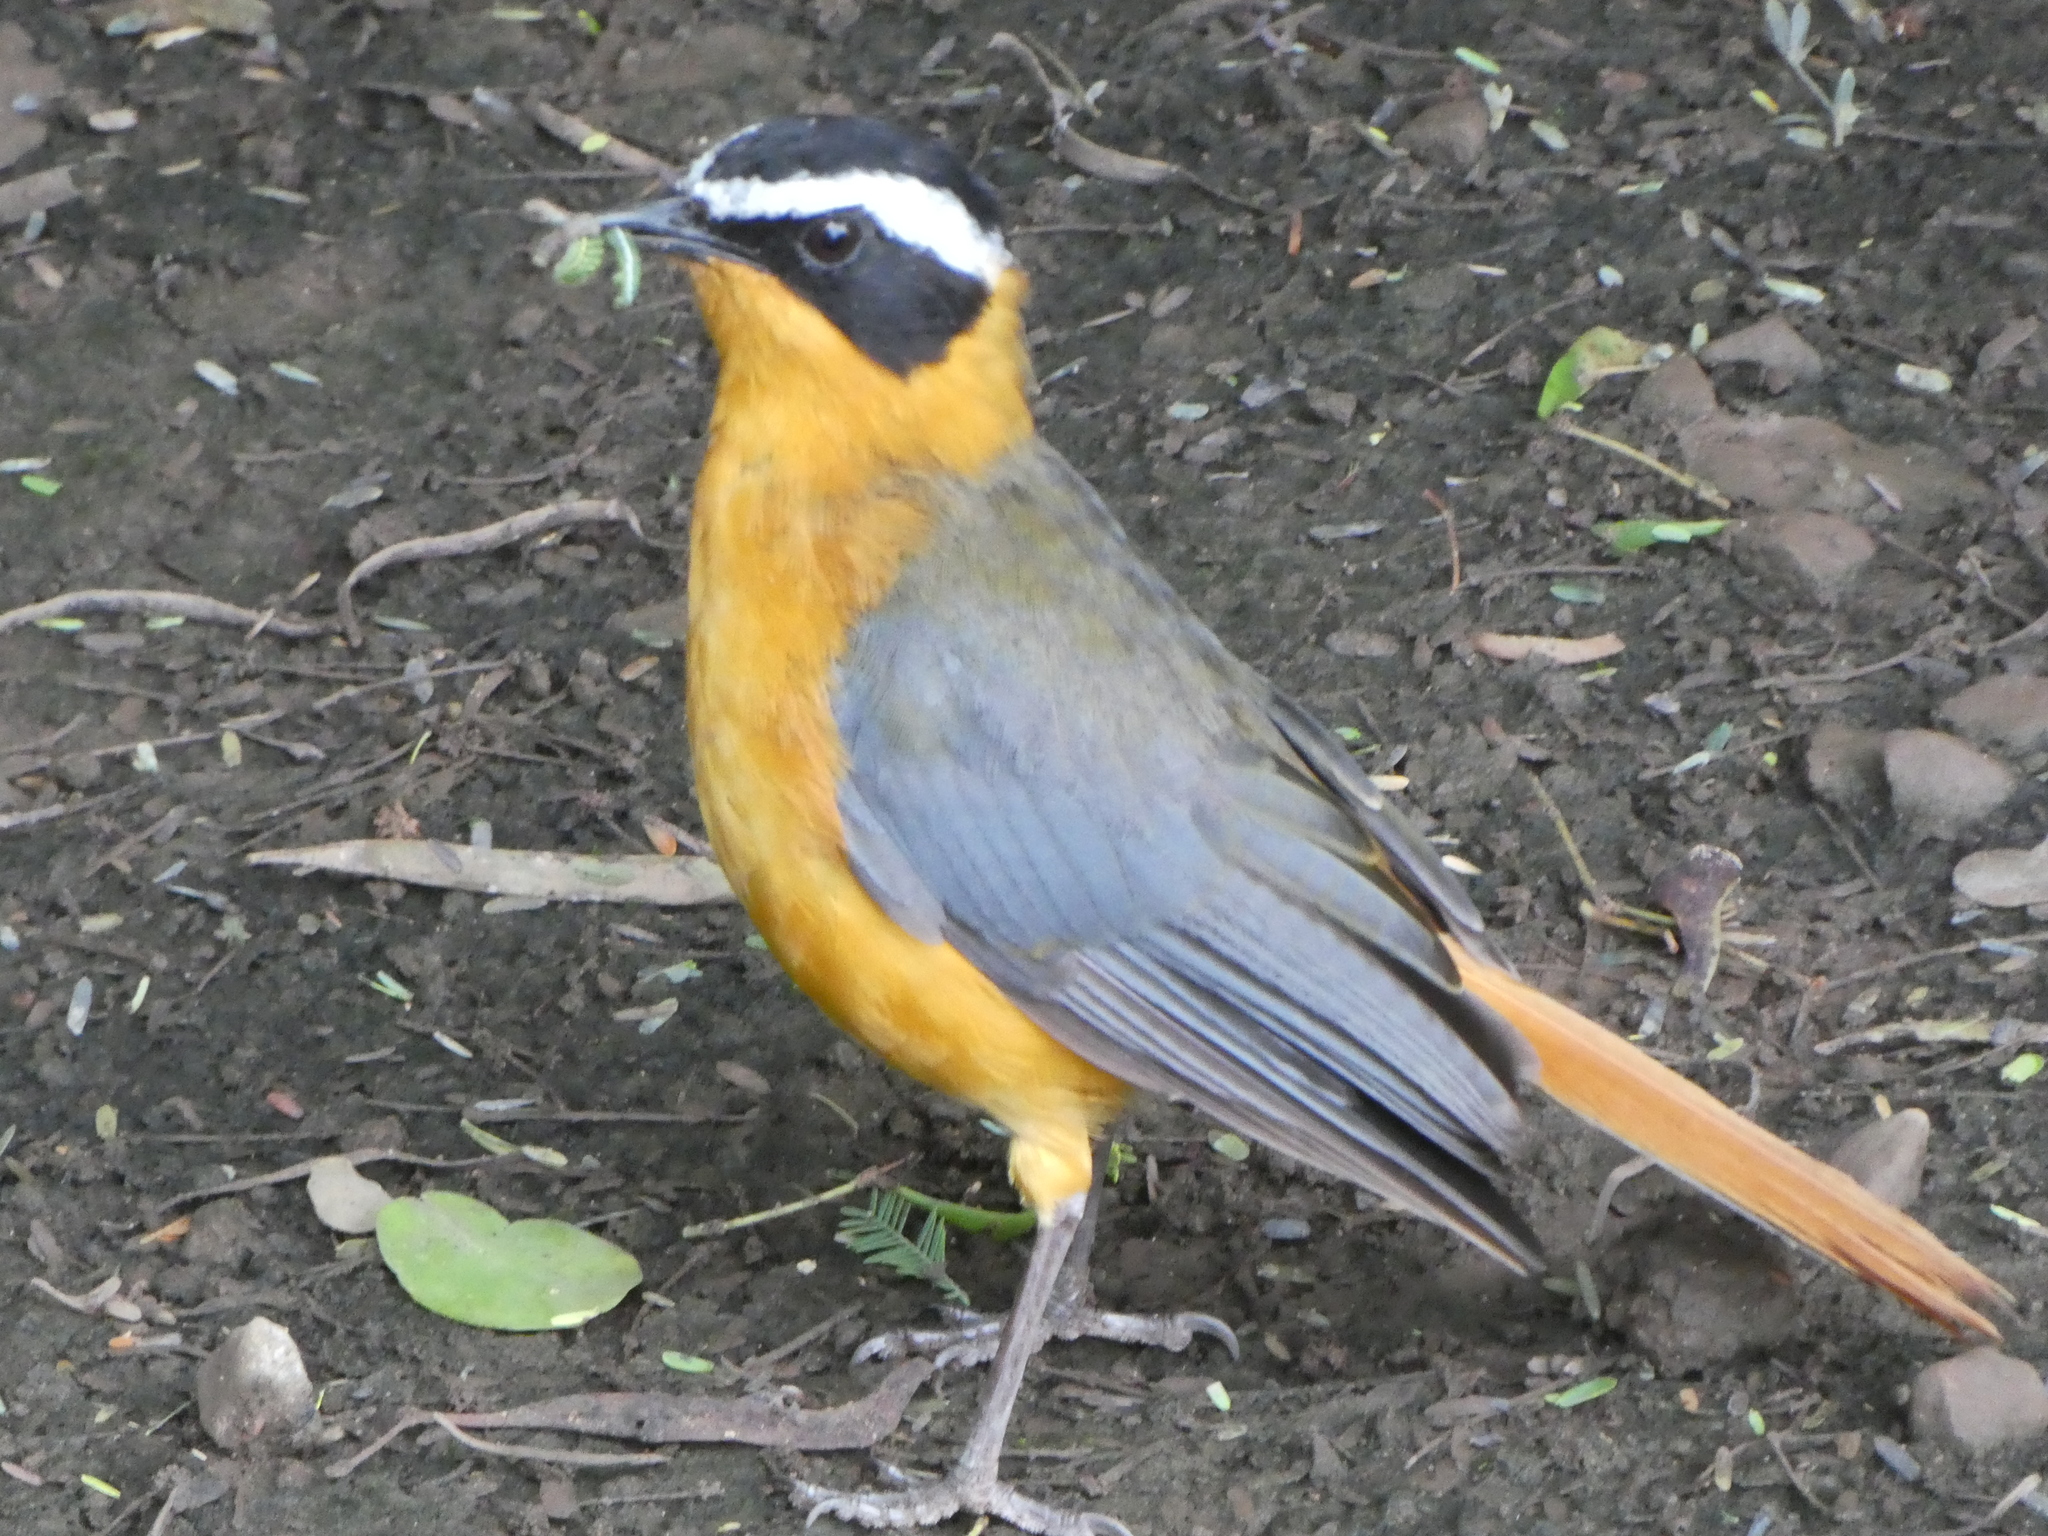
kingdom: Animalia
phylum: Chordata
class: Aves
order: Passeriformes
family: Muscicapidae
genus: Cossypha
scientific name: Cossypha heuglini
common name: White-browed robin-chat
